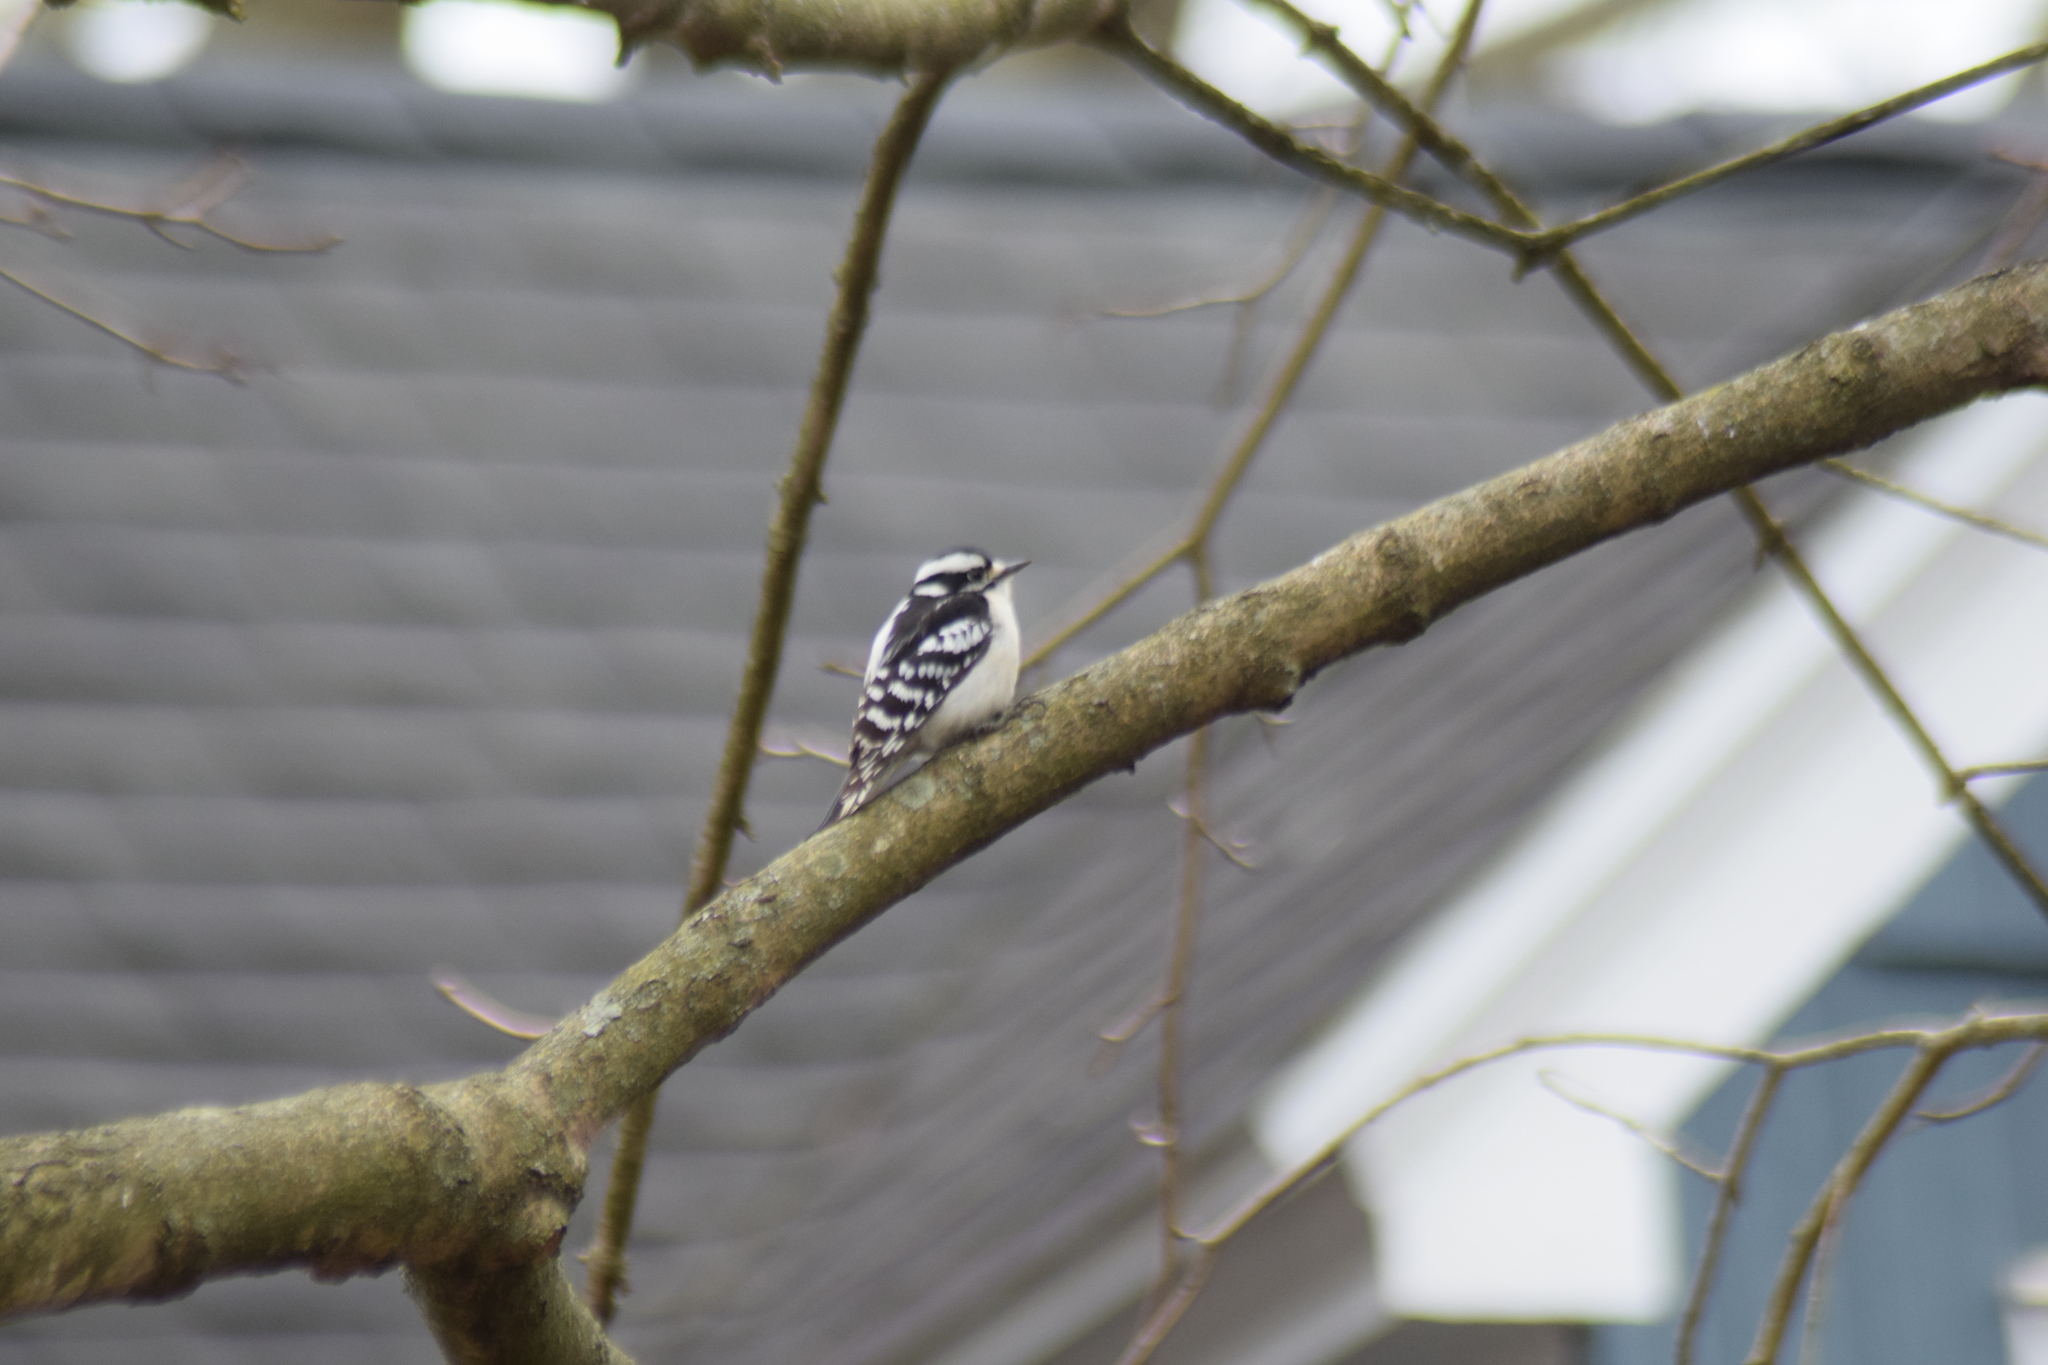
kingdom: Animalia
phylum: Chordata
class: Aves
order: Piciformes
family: Picidae
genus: Dryobates
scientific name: Dryobates pubescens
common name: Downy woodpecker
